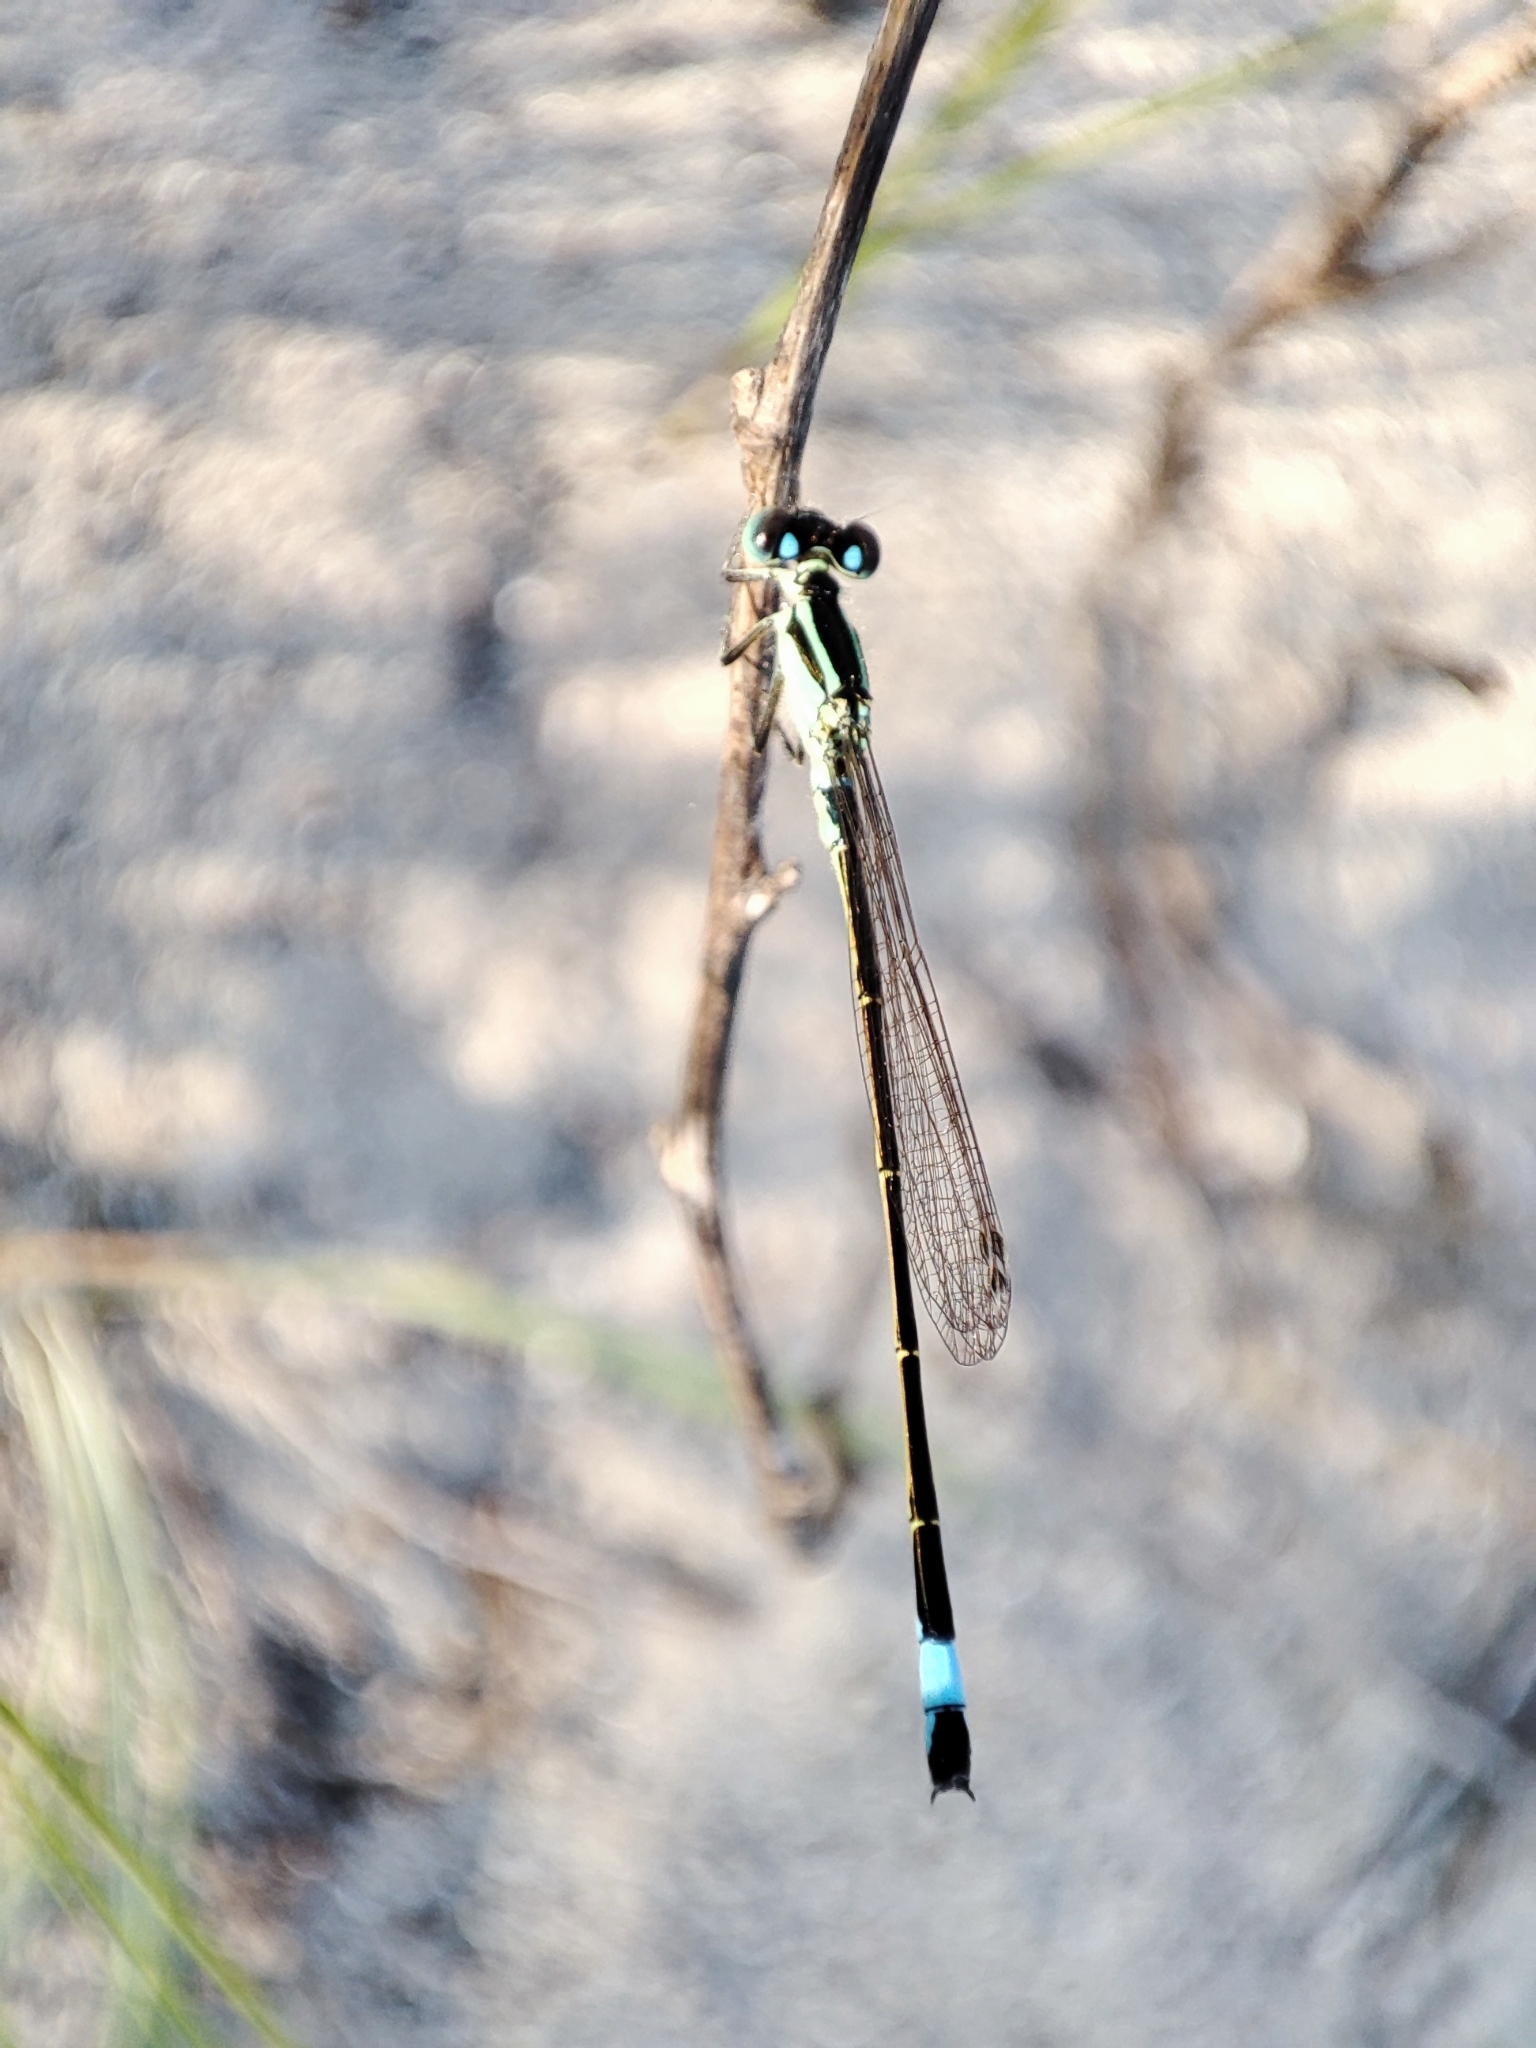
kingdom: Animalia
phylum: Arthropoda
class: Insecta
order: Odonata
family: Coenagrionidae
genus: Ischnura
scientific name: Ischnura elegans
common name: Blue-tailed damselfly
